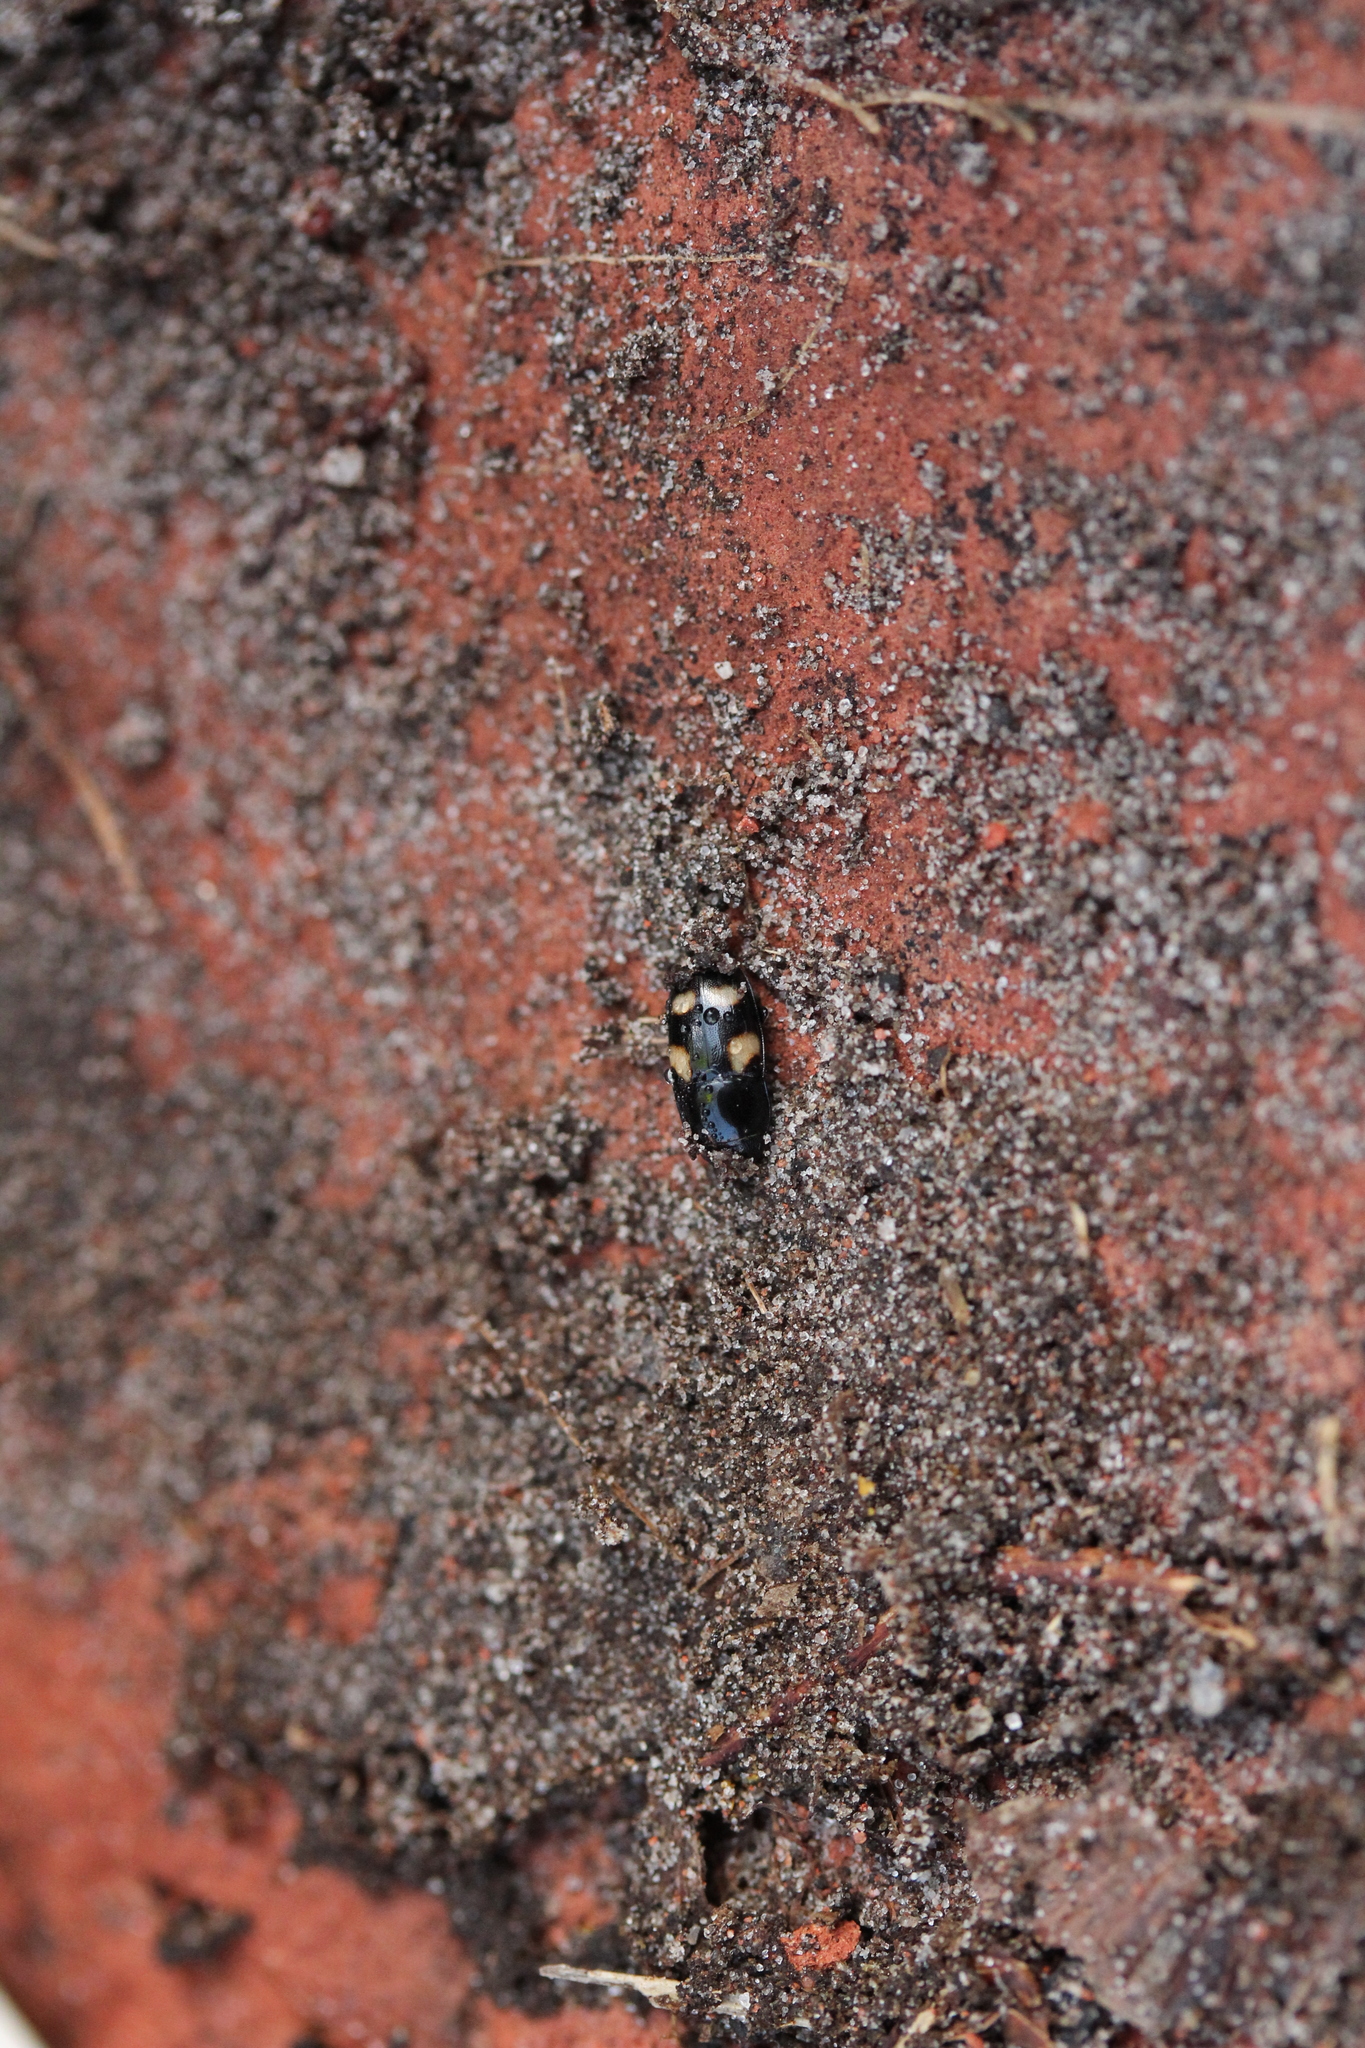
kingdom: Animalia
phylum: Arthropoda
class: Insecta
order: Coleoptera
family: Nitidulidae
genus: Glischrochilus
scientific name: Glischrochilus quadrisignatus
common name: Picnic beetle
